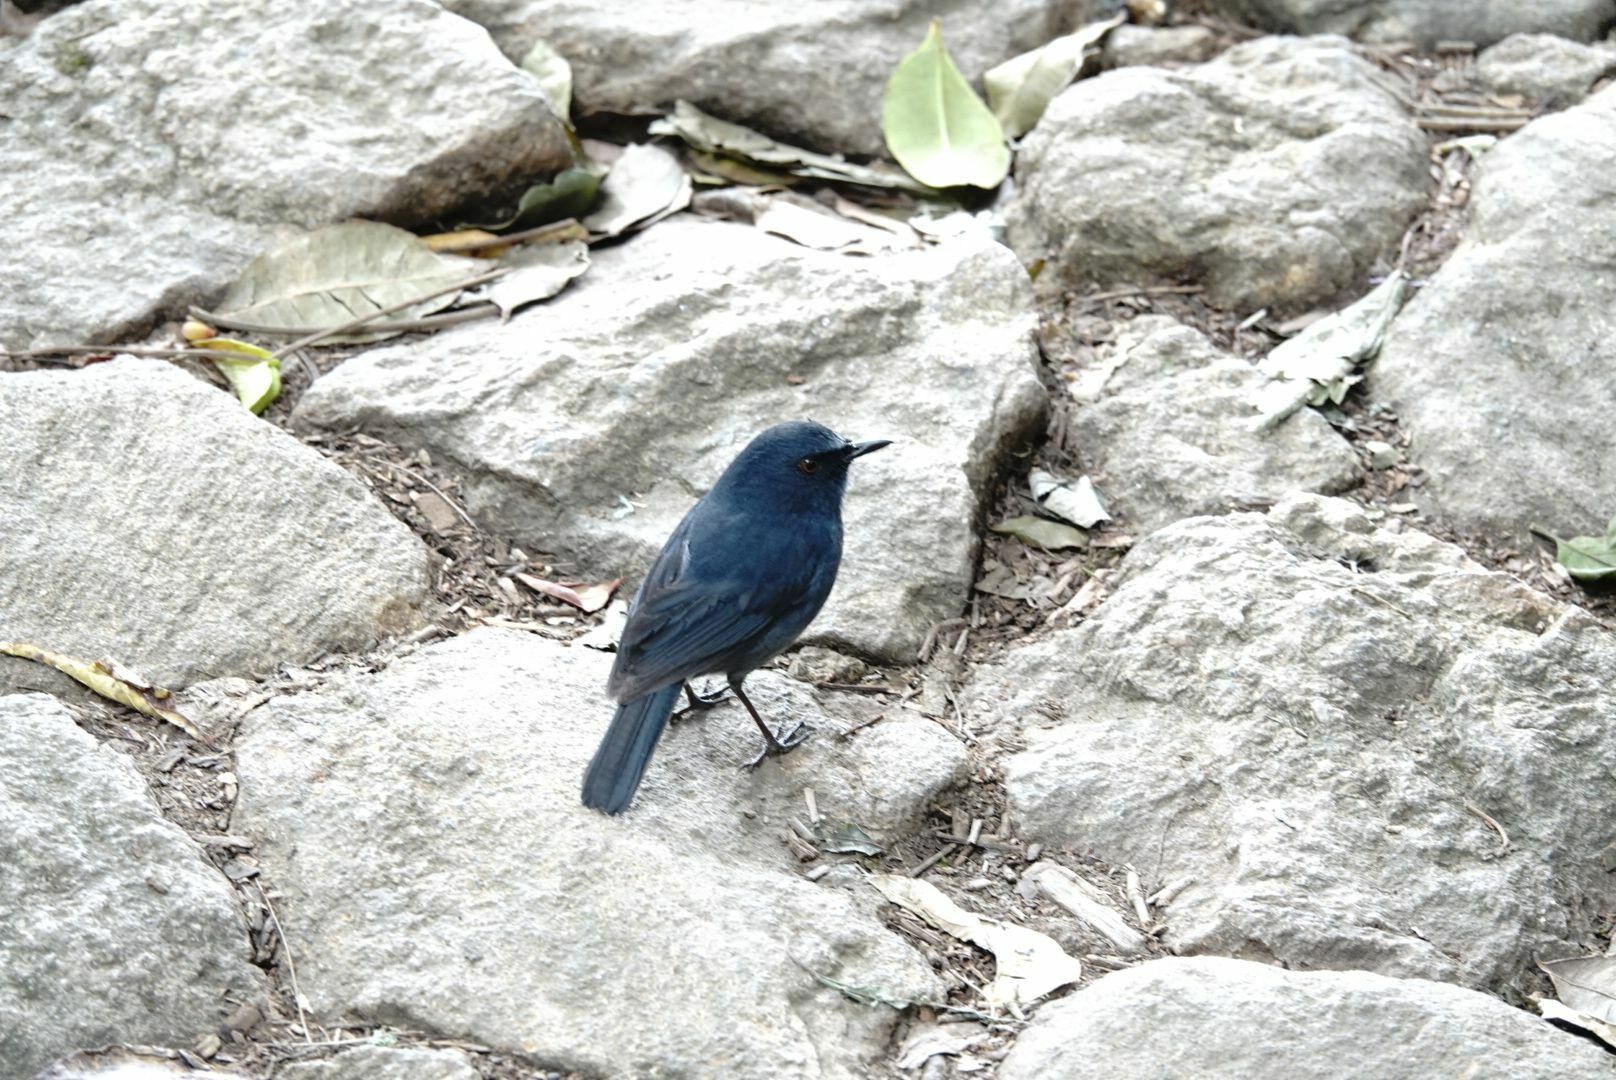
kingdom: Animalia
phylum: Chordata
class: Aves
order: Passeriformes
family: Muscicapidae
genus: Myiomela
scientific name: Myiomela albiventris
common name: White-bellied blue-robin
